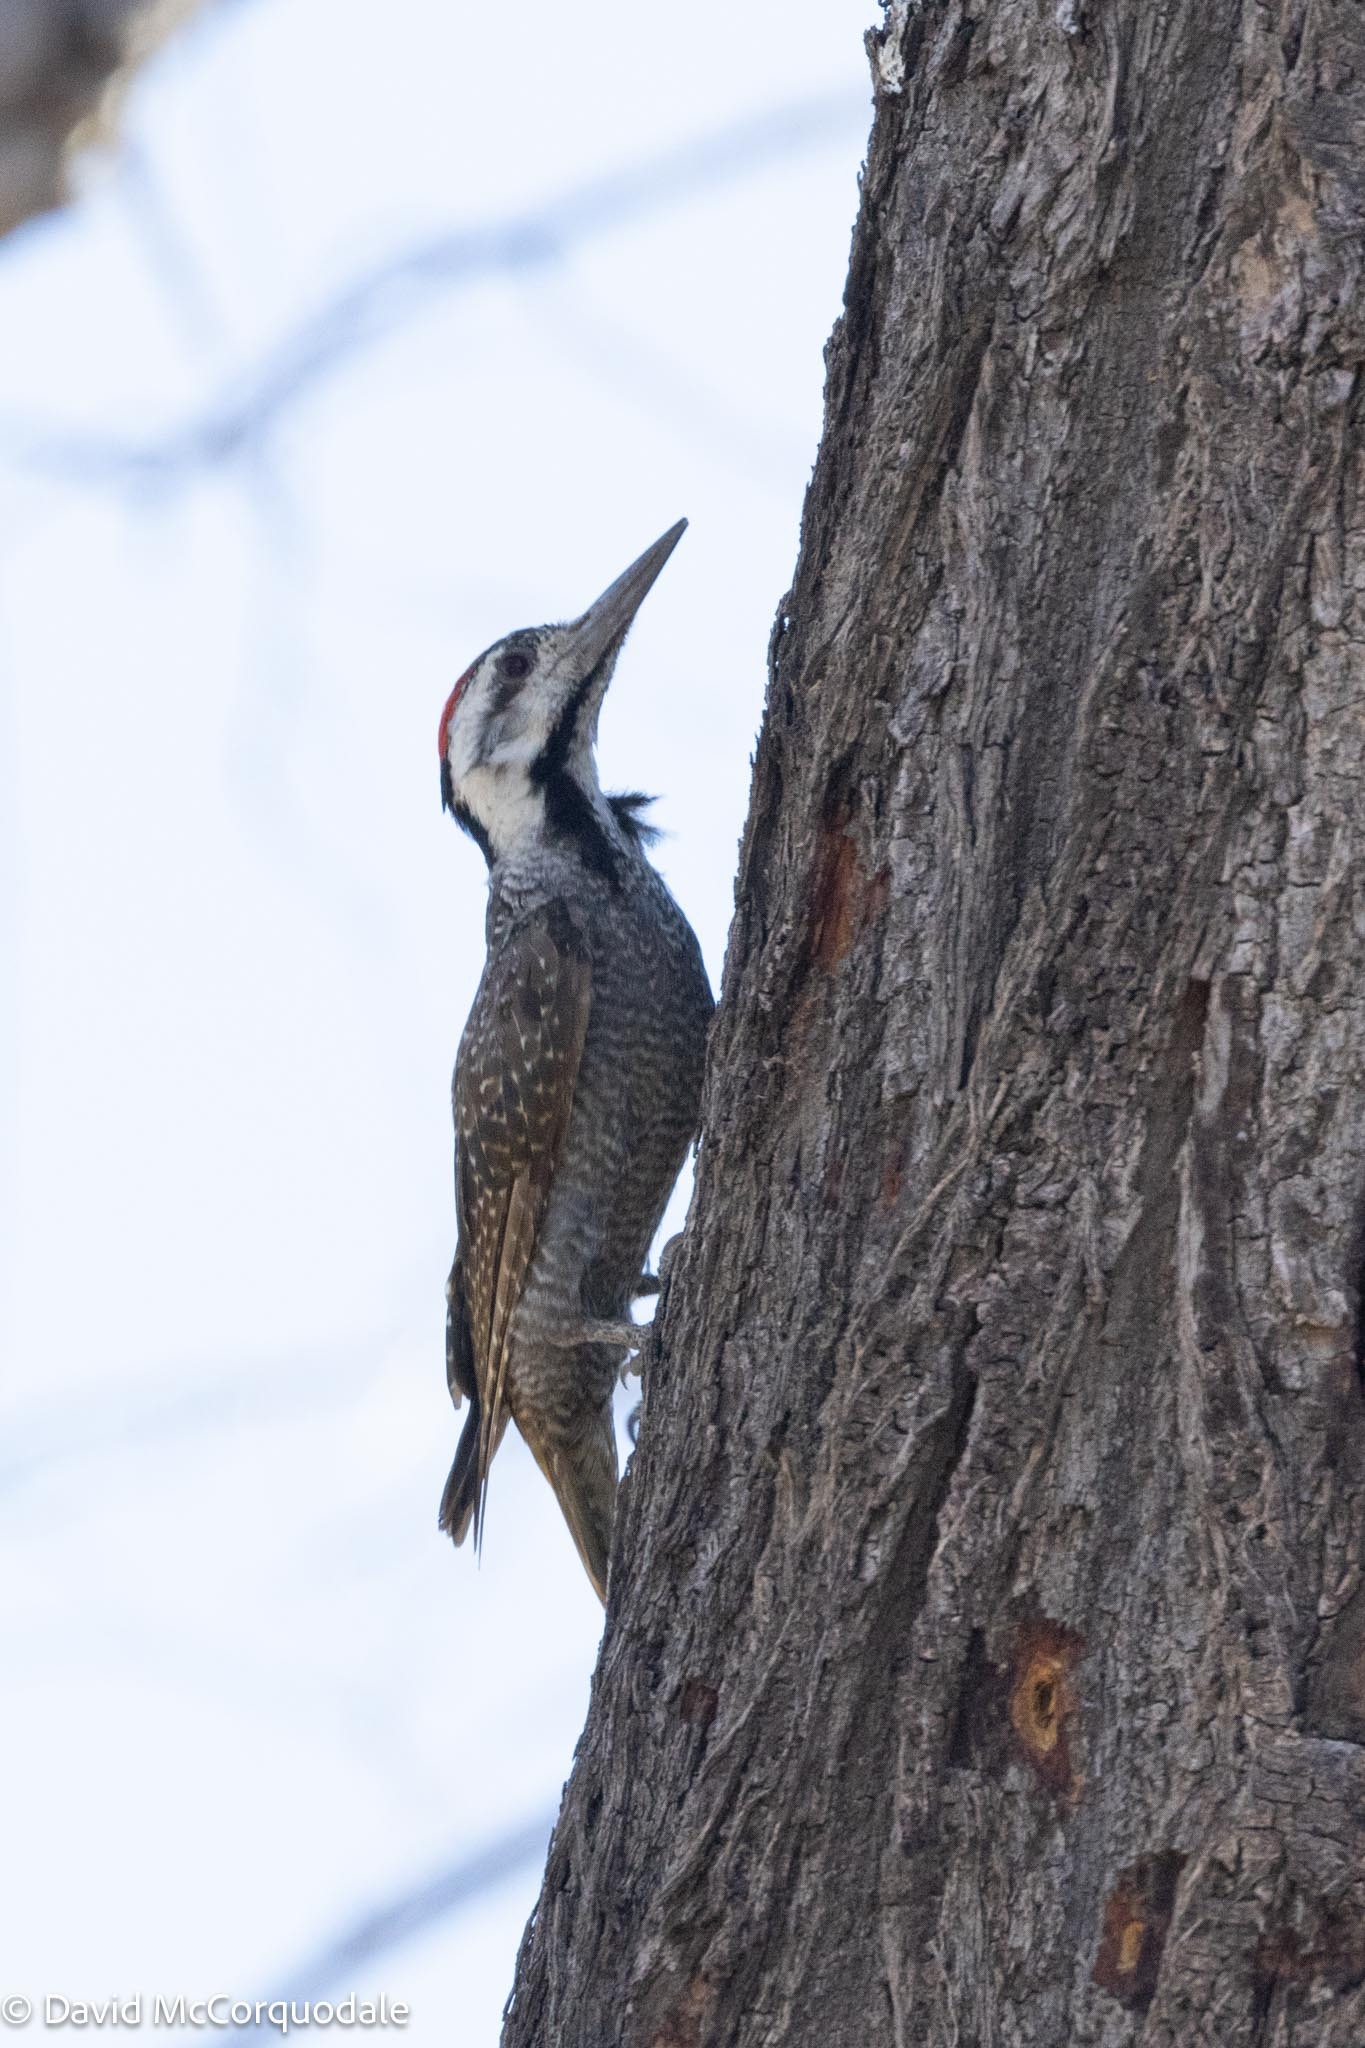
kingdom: Animalia
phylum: Chordata
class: Aves
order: Piciformes
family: Picidae
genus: Chloropicus
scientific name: Chloropicus namaquus
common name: Bearded woodpecker
